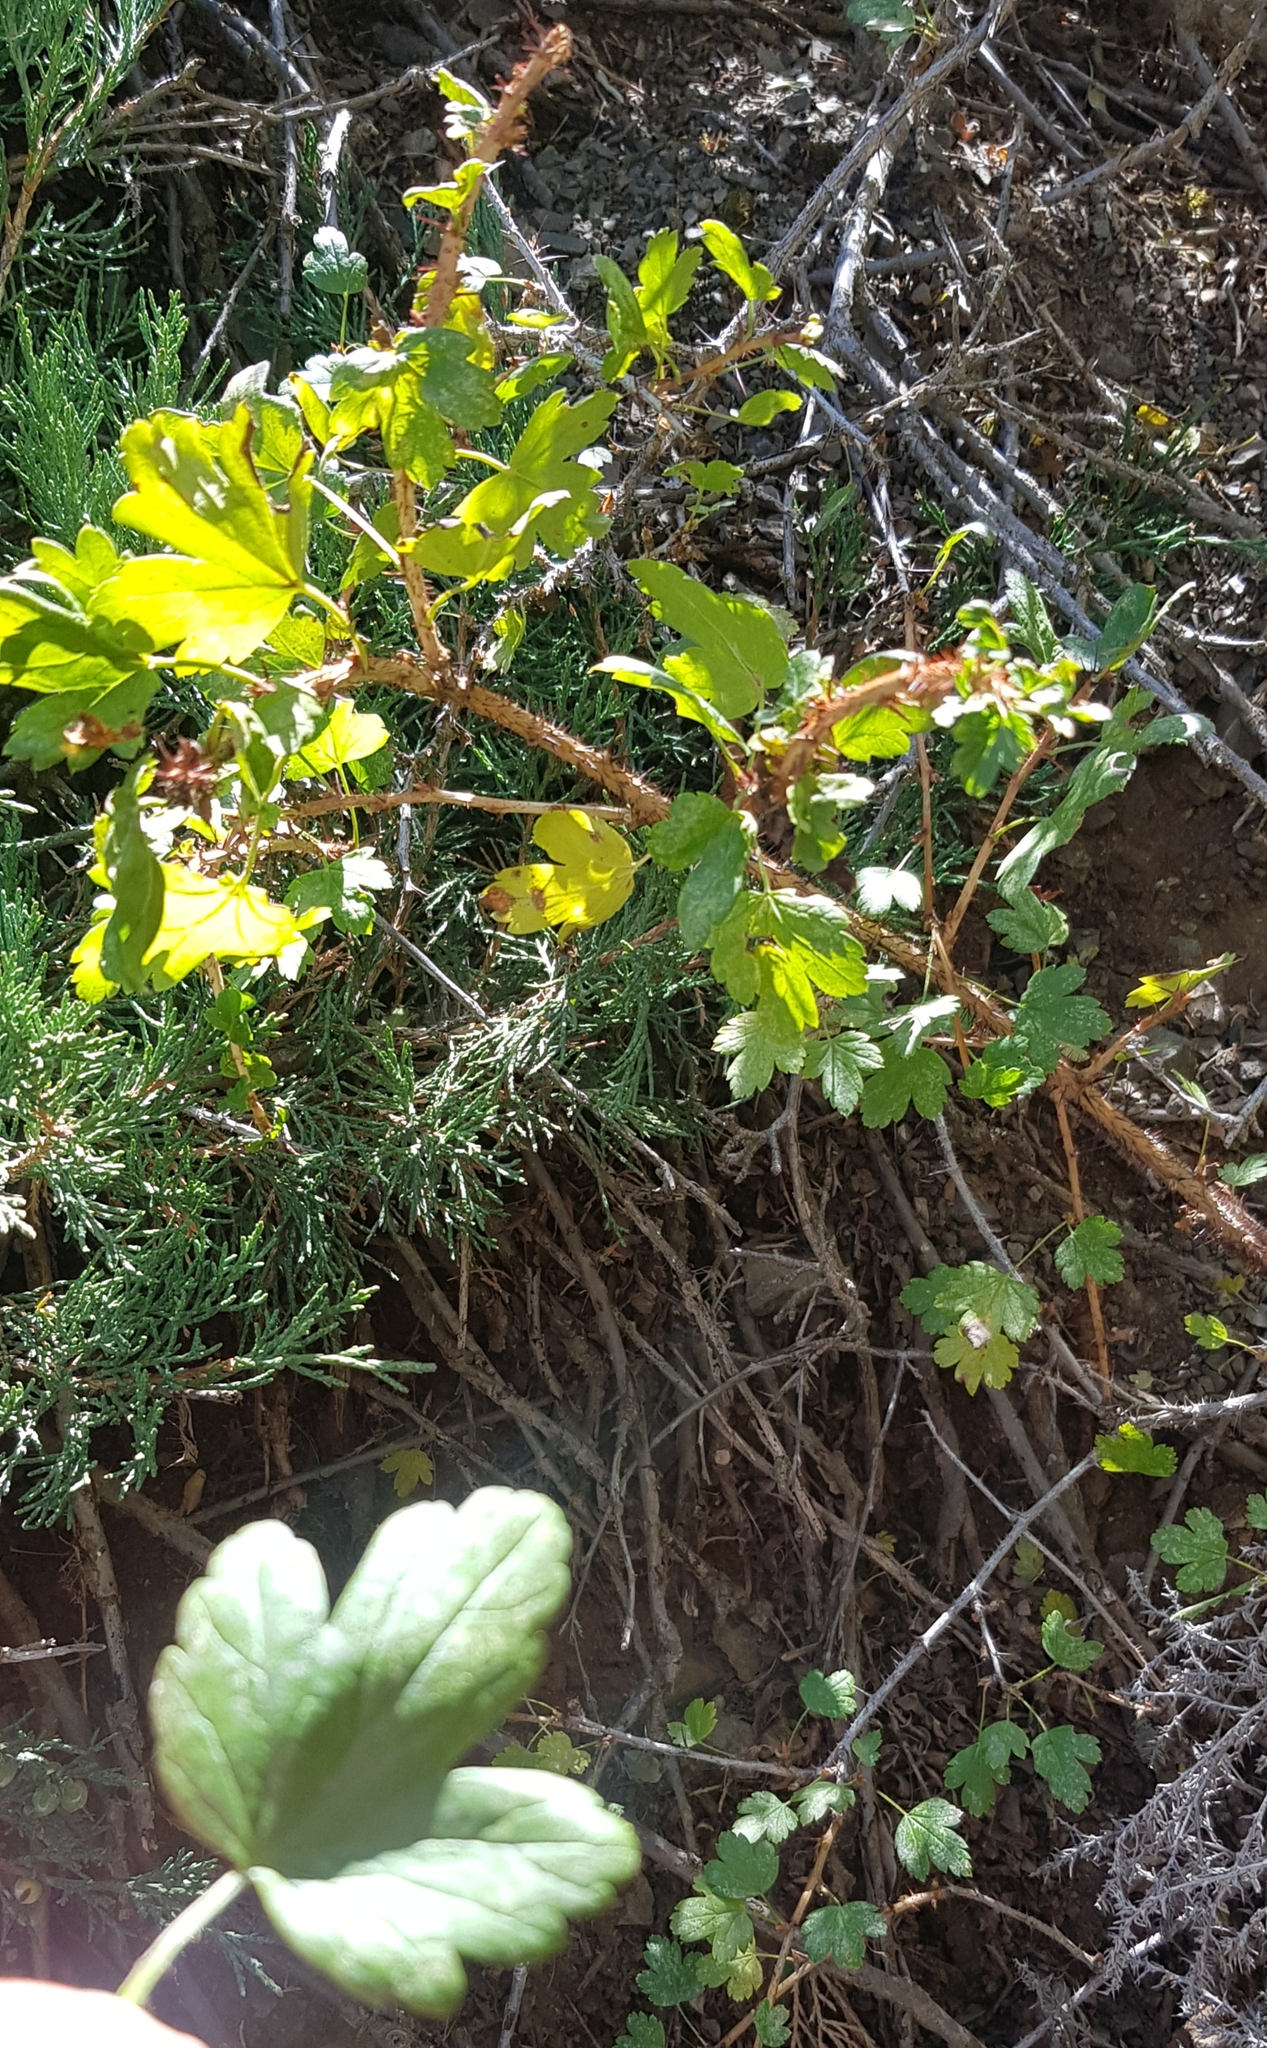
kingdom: Plantae
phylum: Tracheophyta
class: Magnoliopsida
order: Saxifragales
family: Grossulariaceae
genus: Ribes
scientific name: Ribes aciculare
